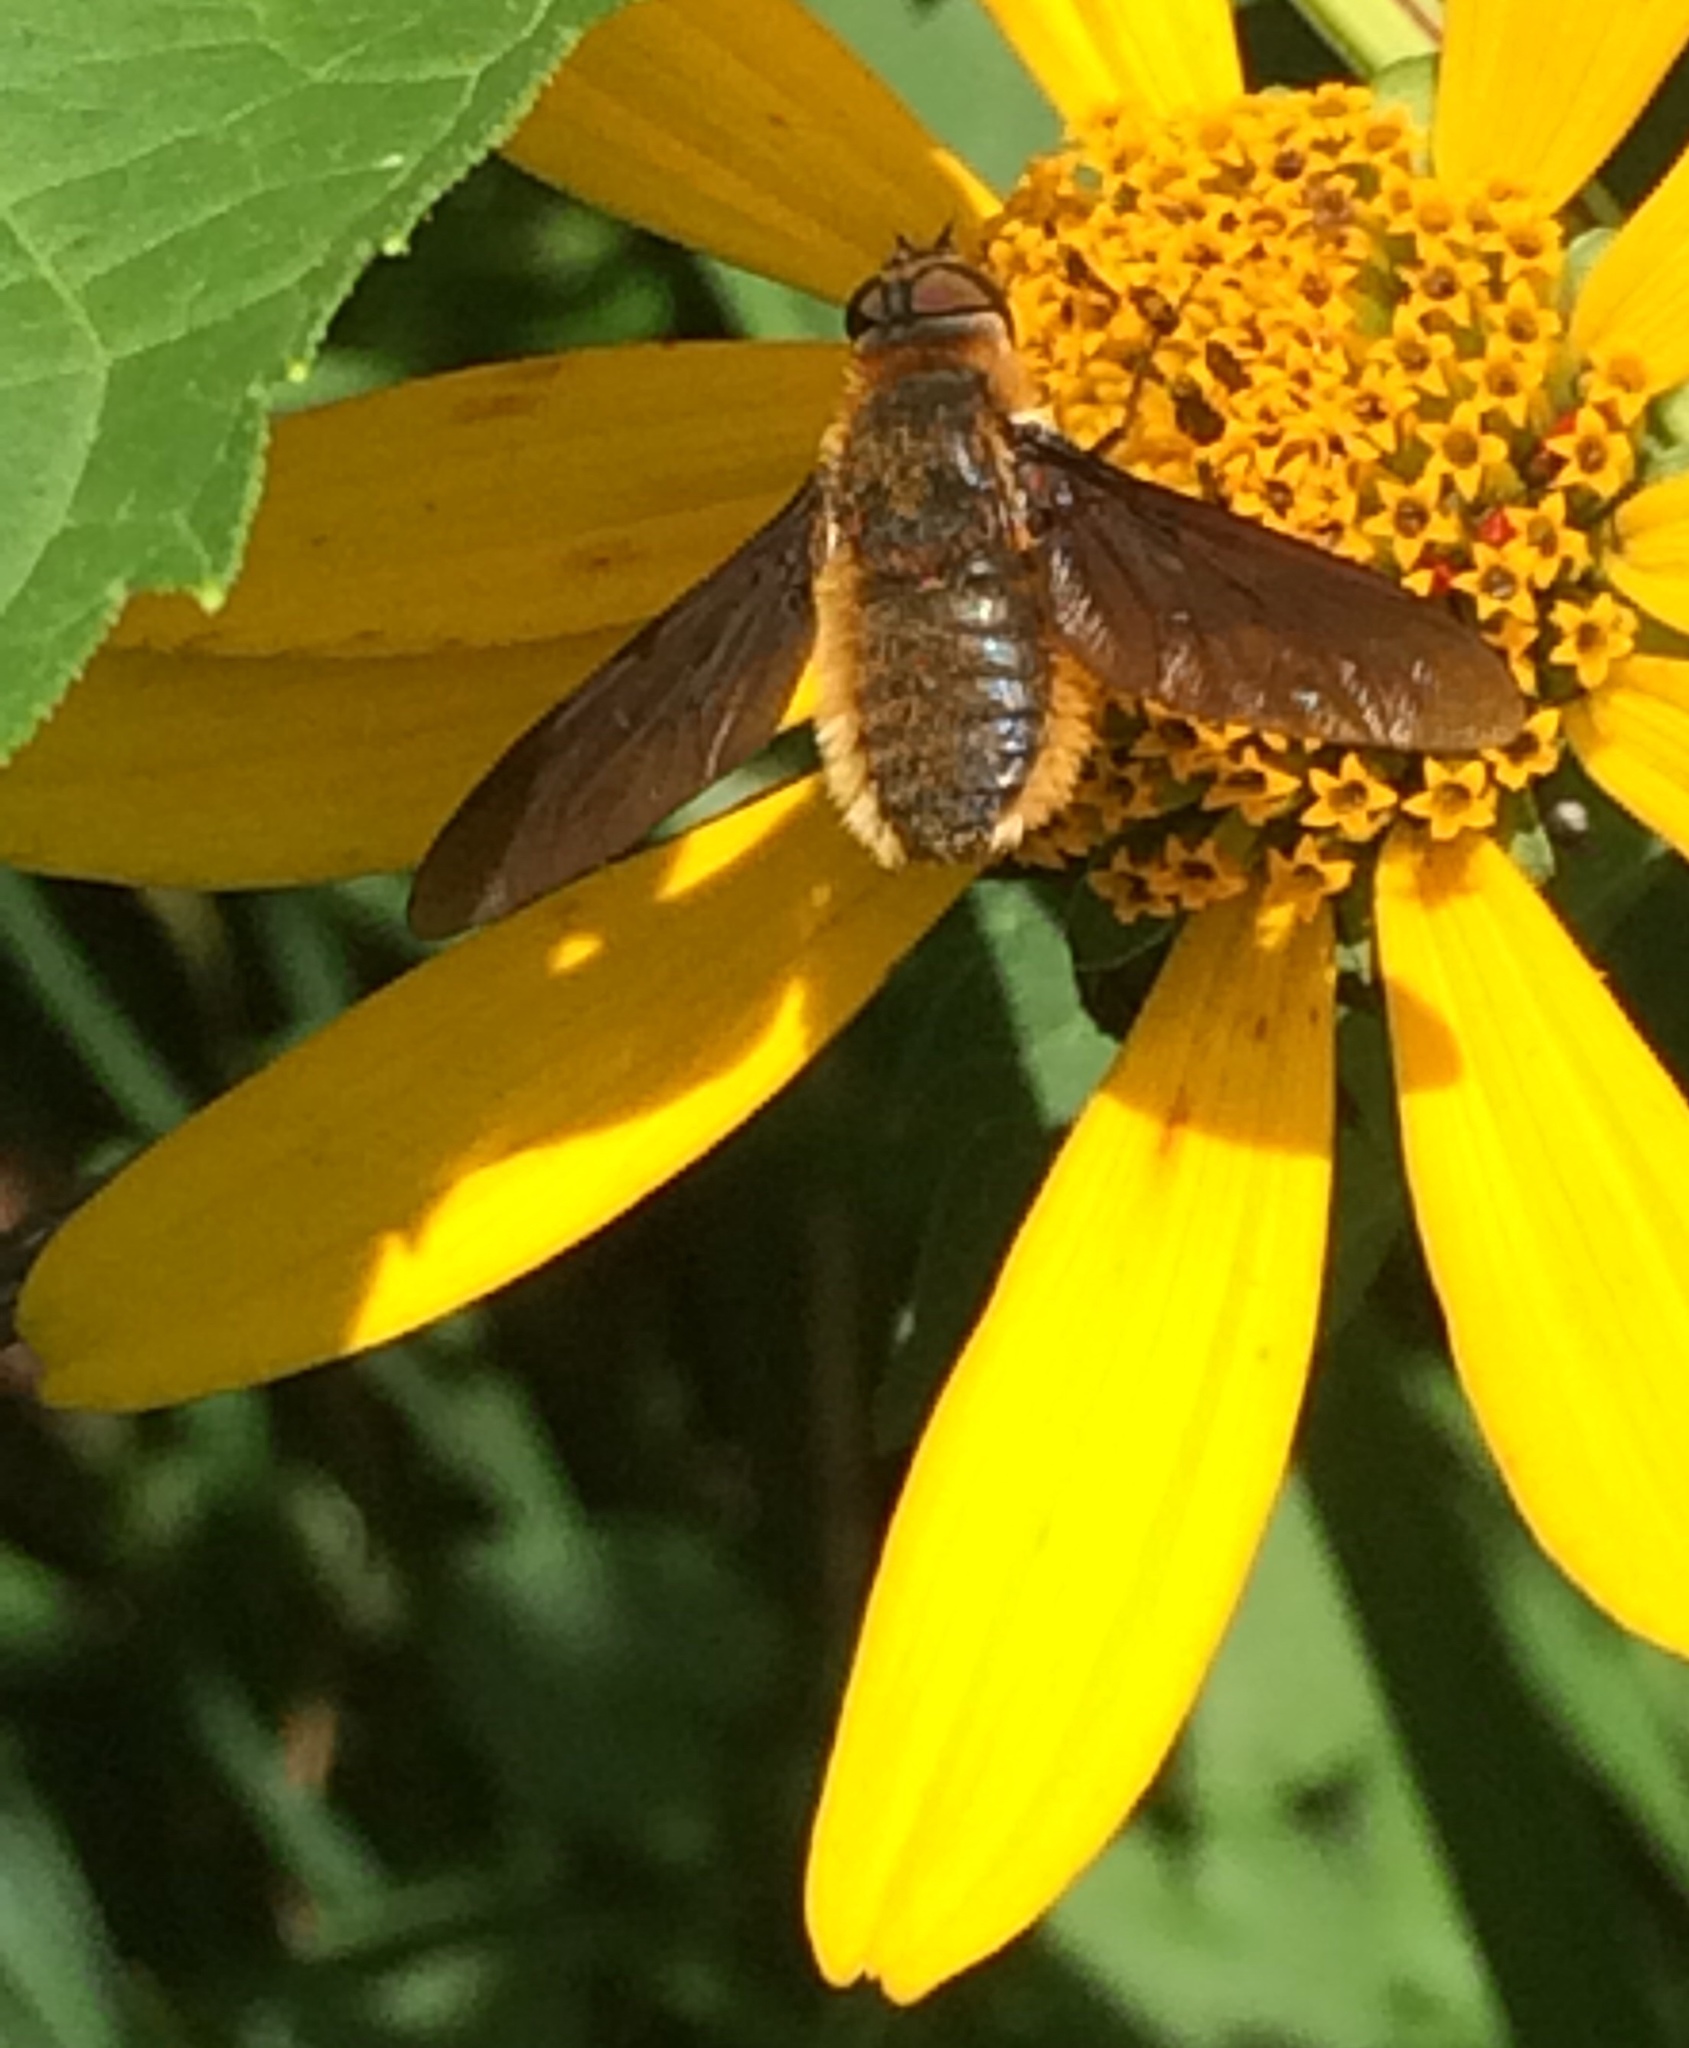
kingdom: Animalia
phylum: Arthropoda
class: Insecta
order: Diptera
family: Bombyliidae
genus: Poecilanthrax
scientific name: Poecilanthrax tegminipennis
